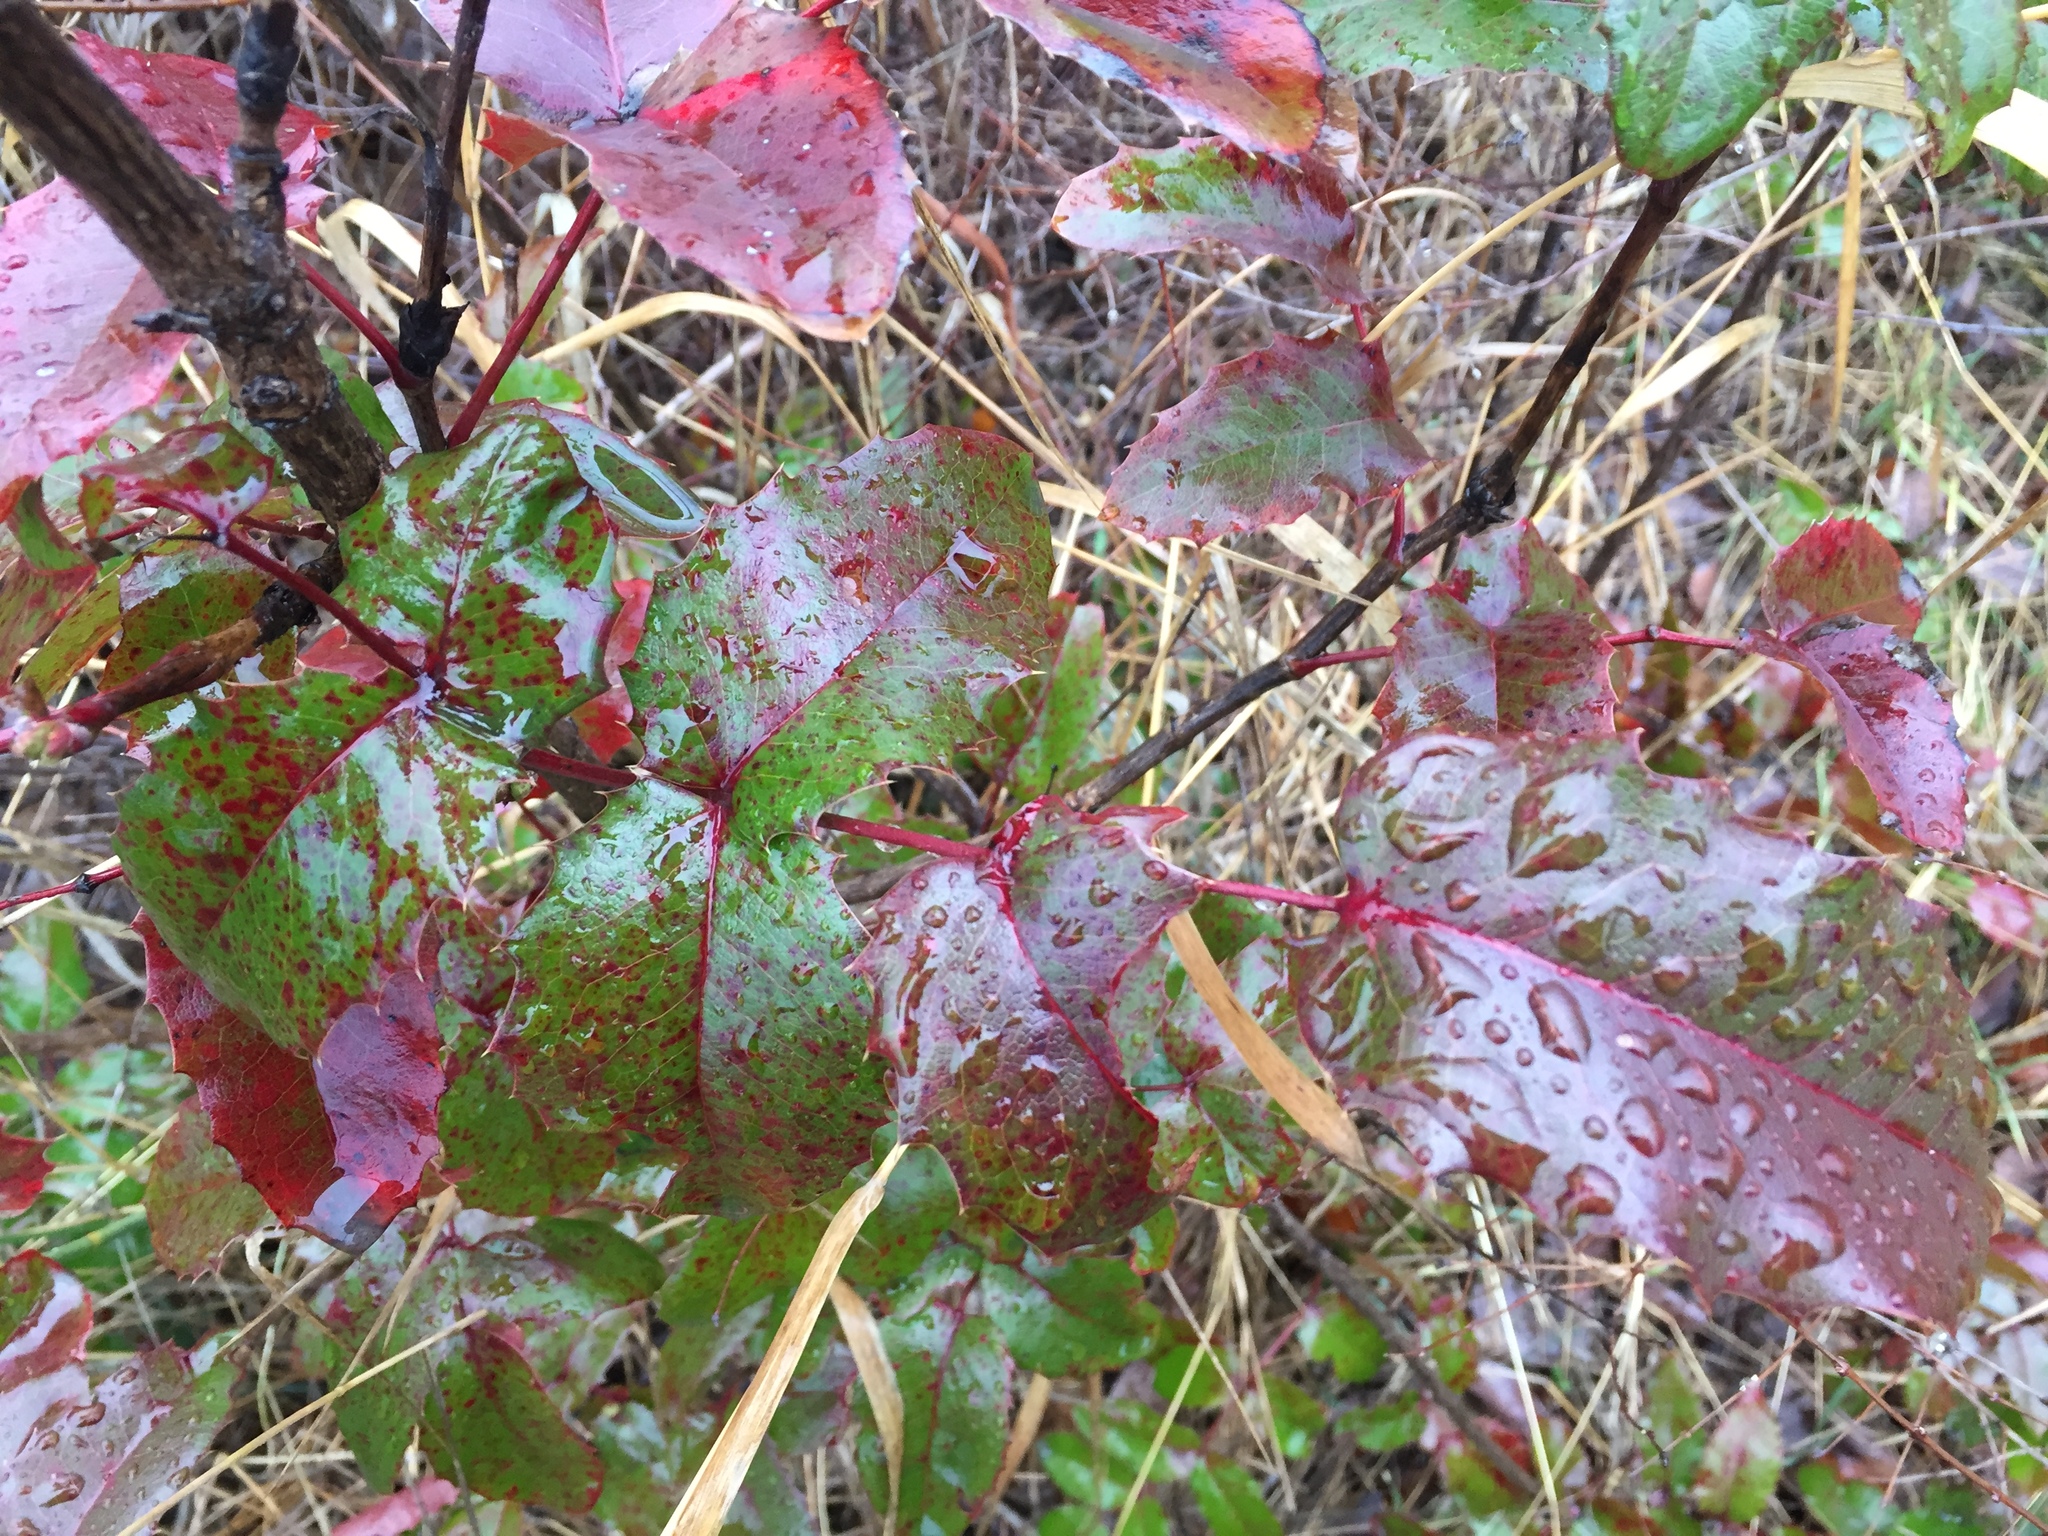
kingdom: Plantae
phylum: Tracheophyta
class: Magnoliopsida
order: Ranunculales
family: Berberidaceae
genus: Mahonia
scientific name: Mahonia aquifolium
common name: Oregon-grape
